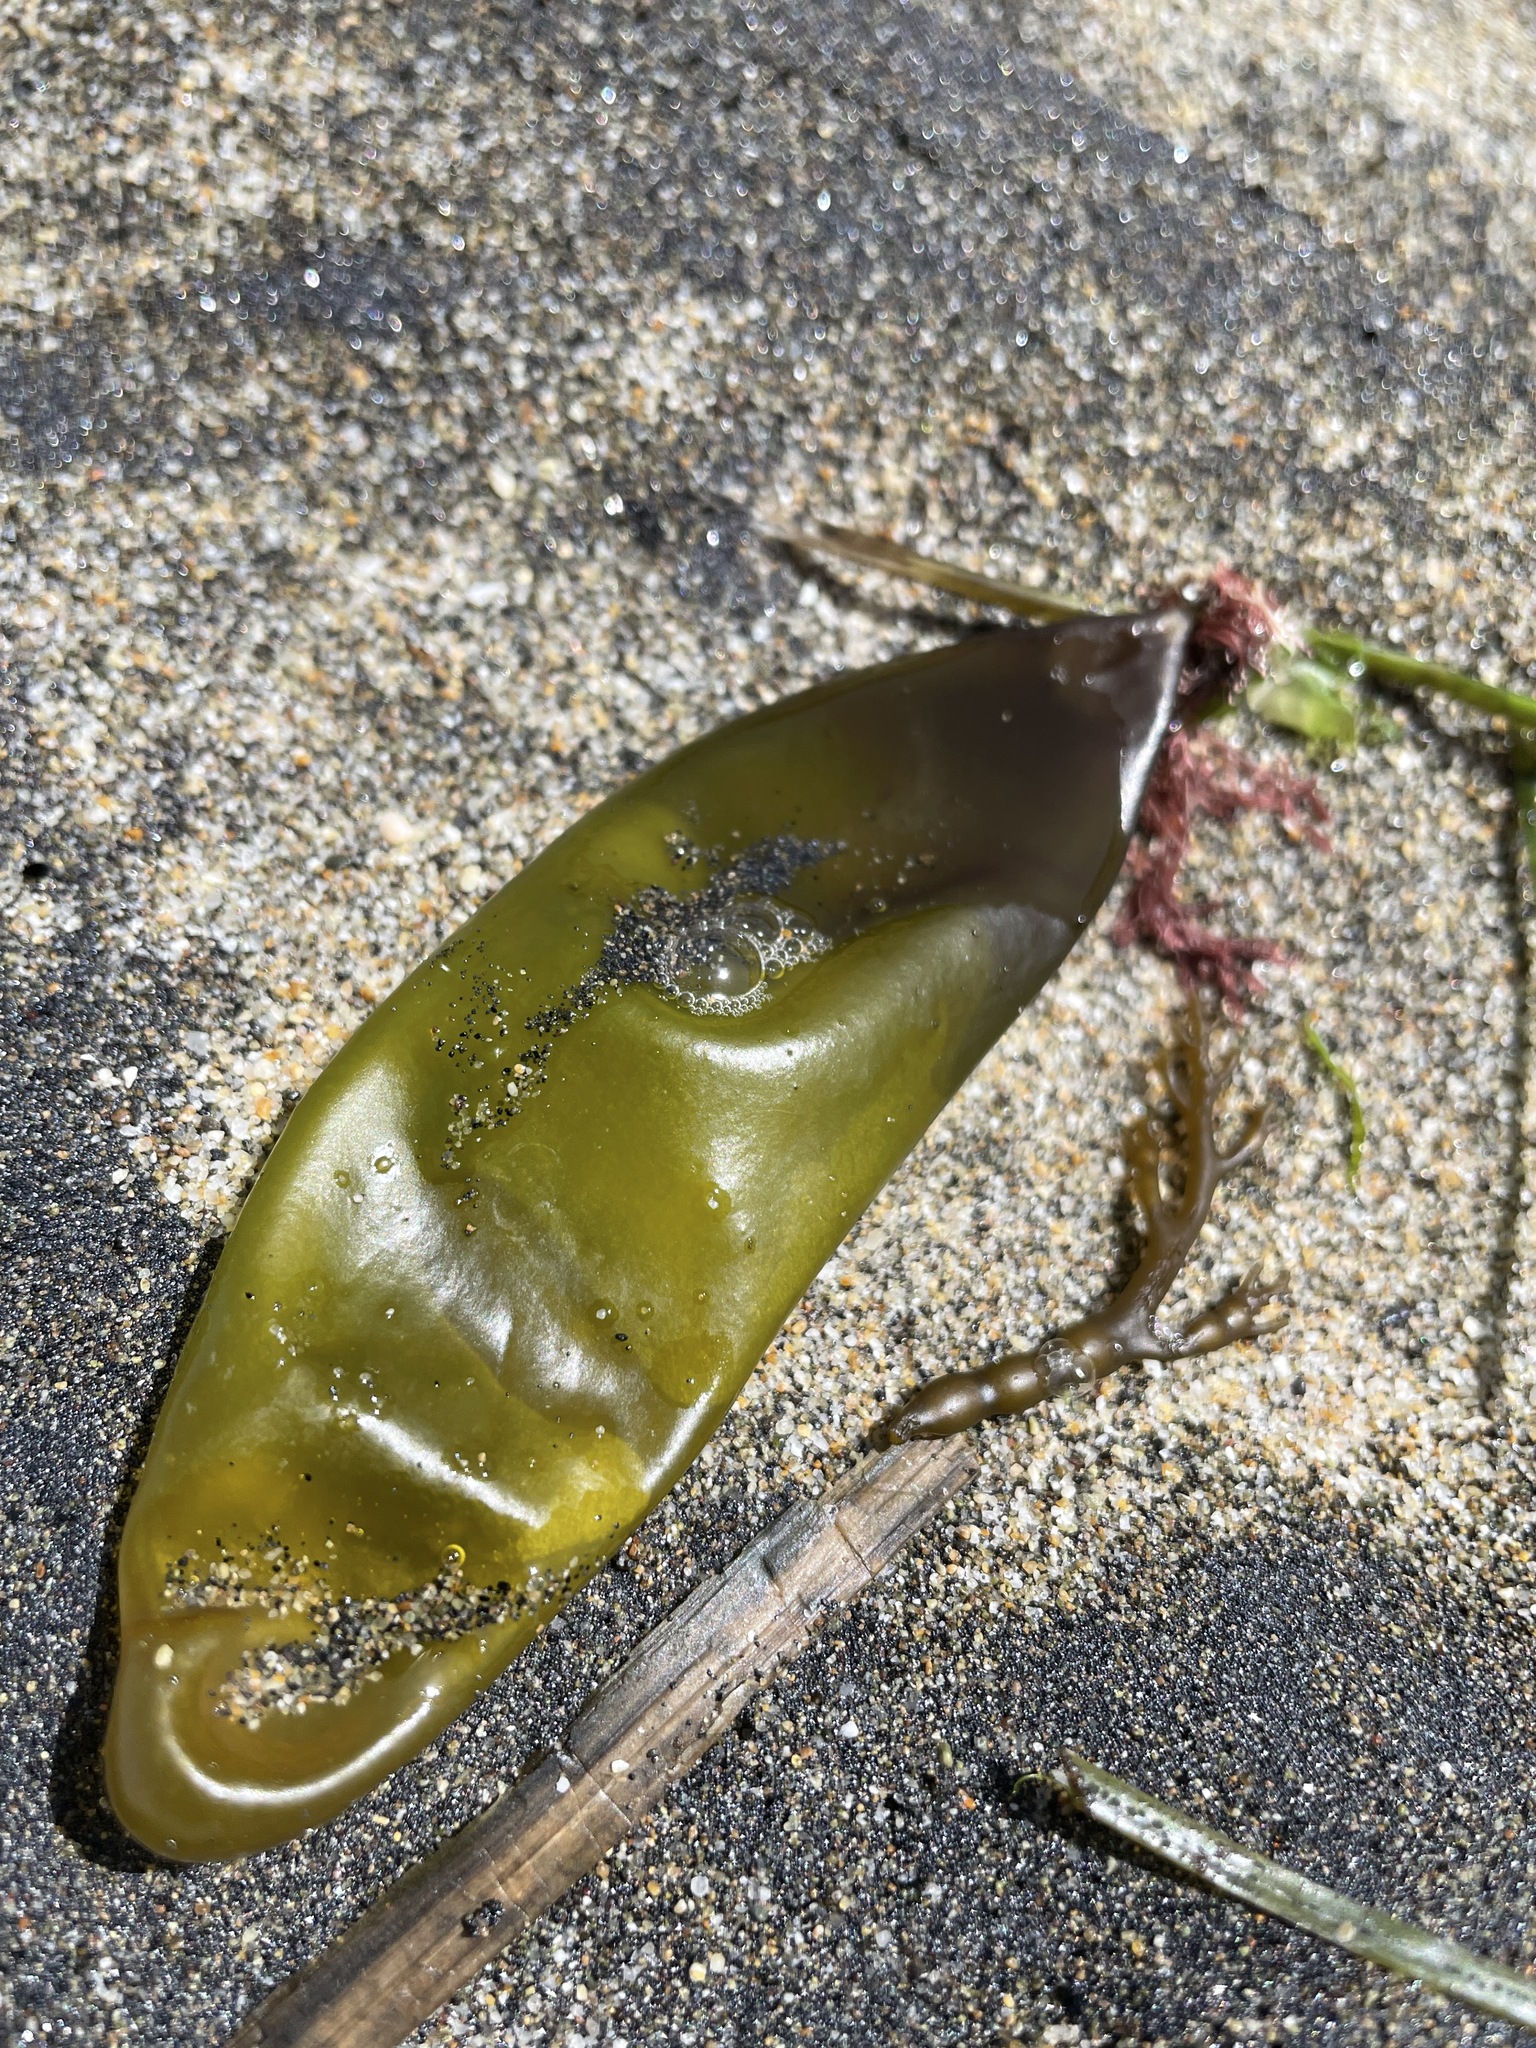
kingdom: Plantae
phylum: Rhodophyta
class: Florideophyceae
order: Palmariales
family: Palmariaceae
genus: Halosaccion
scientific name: Halosaccion glandiforme
